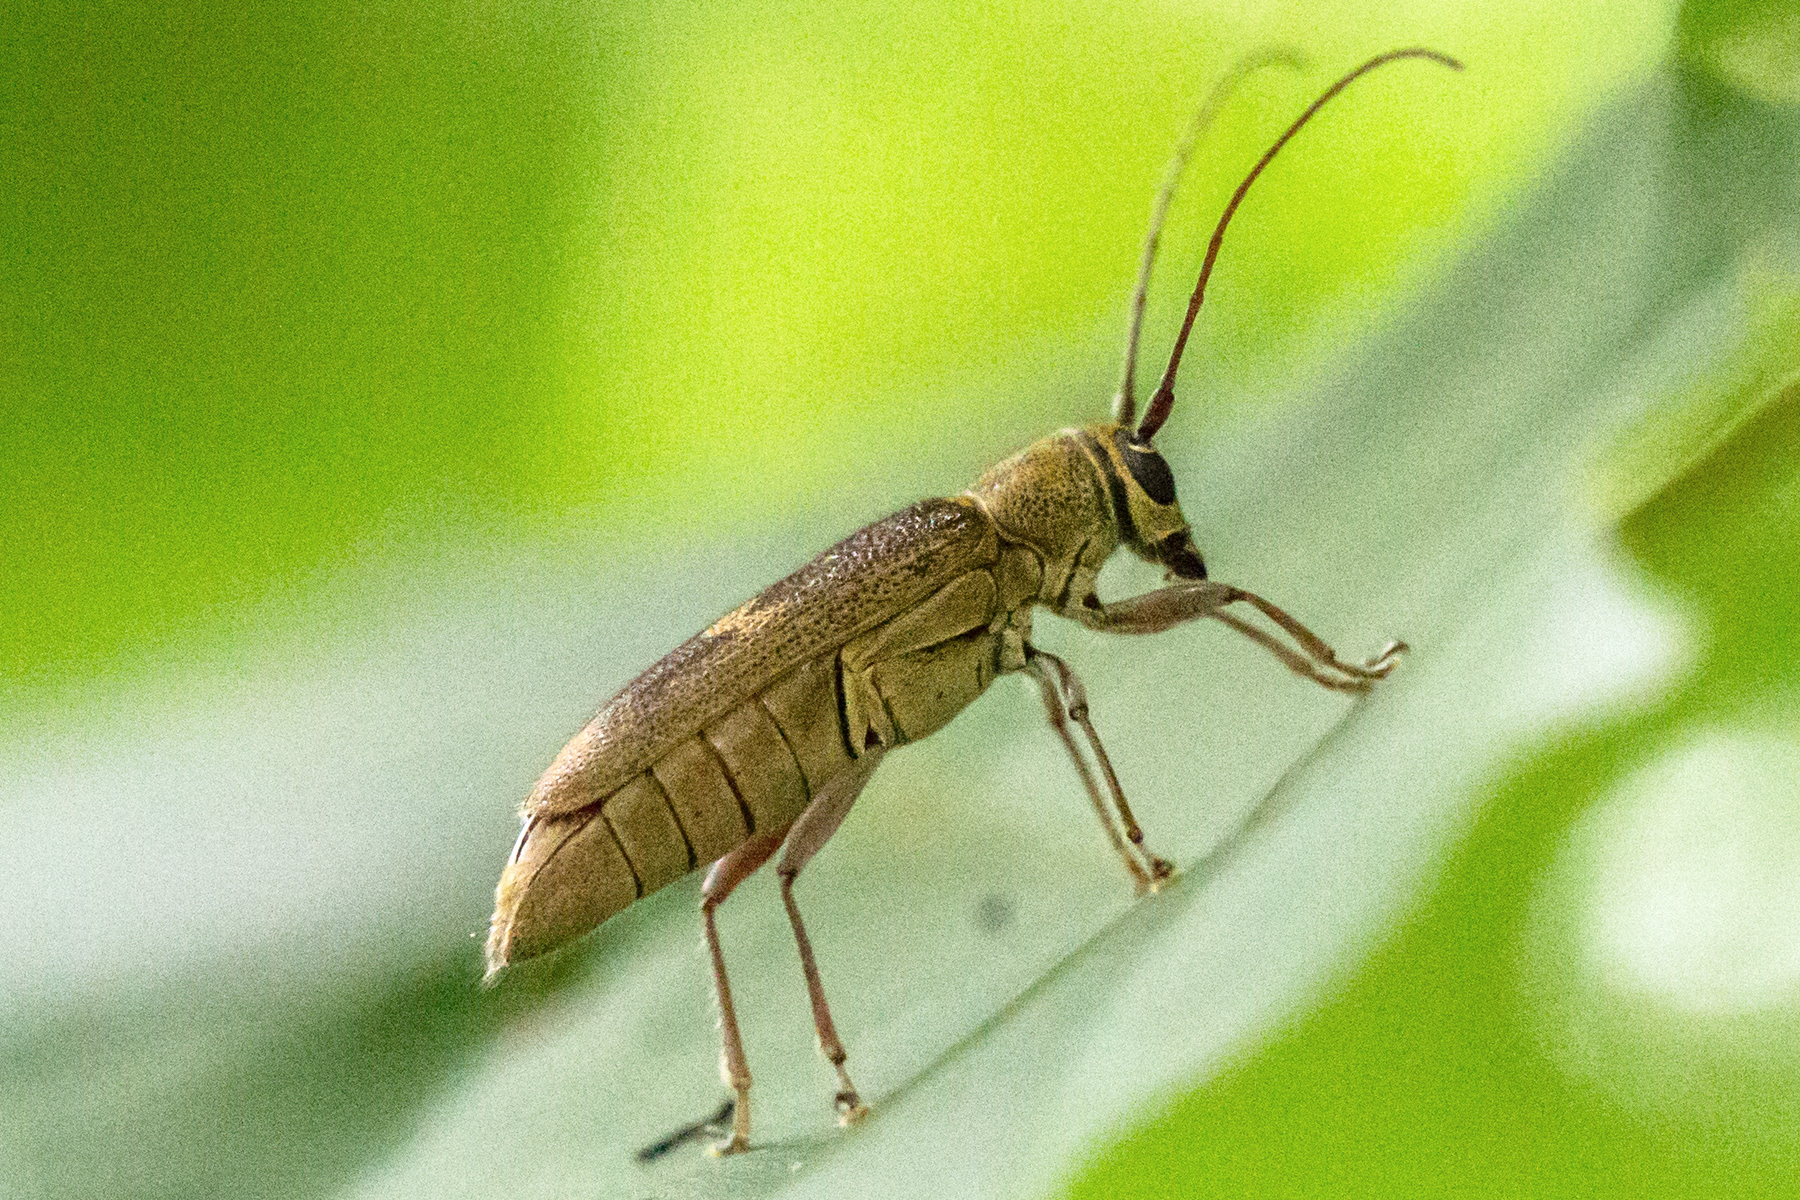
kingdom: Animalia
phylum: Arthropoda
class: Insecta
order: Coleoptera
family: Cerambycidae
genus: Saperda
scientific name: Saperda discoidea
